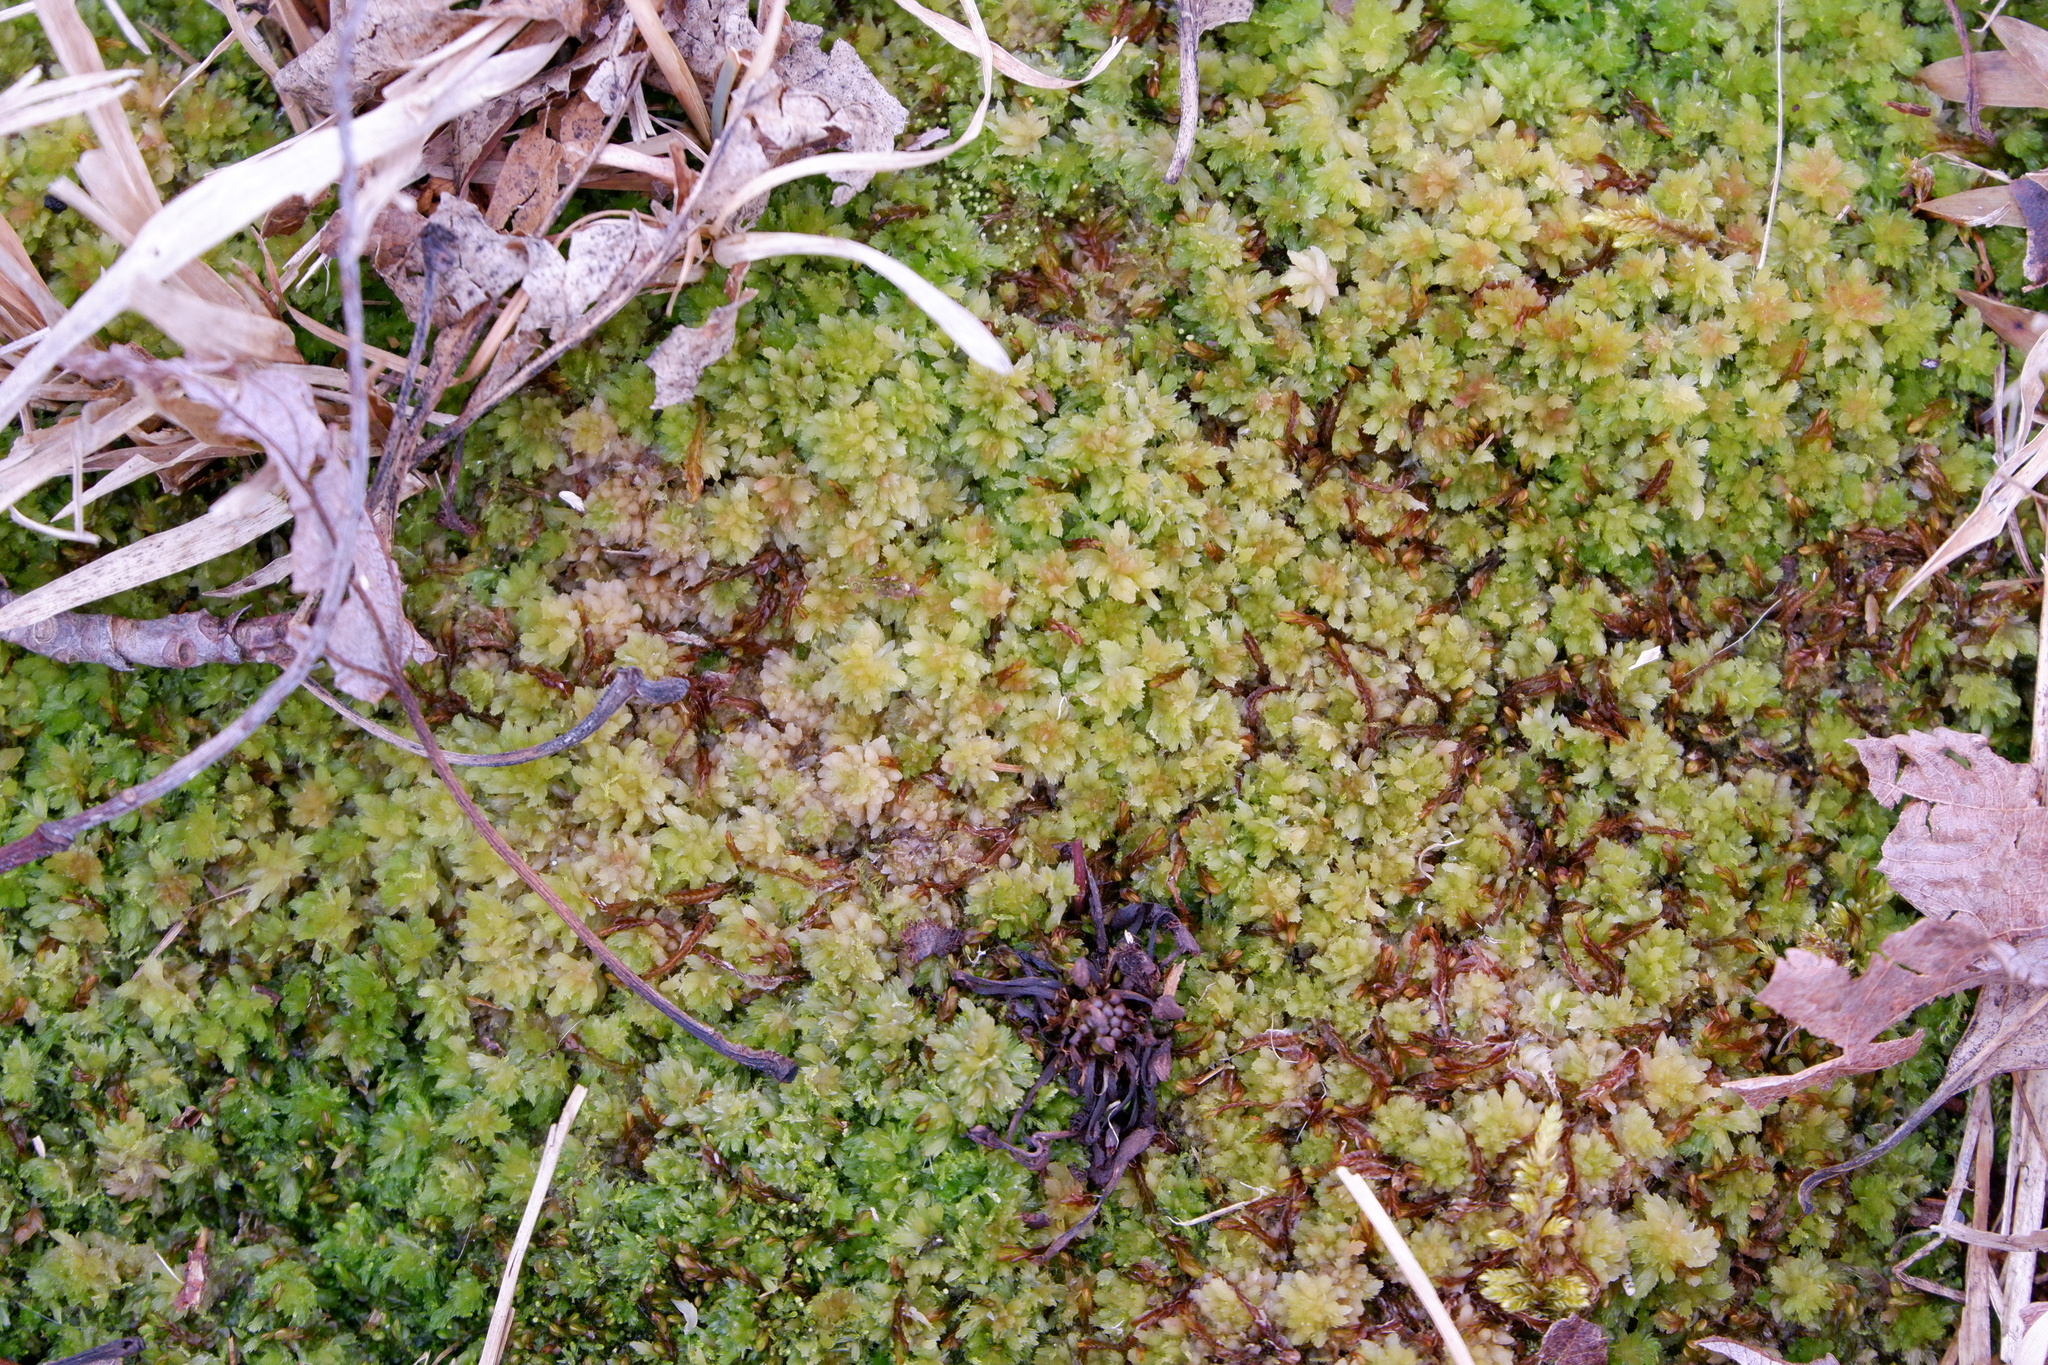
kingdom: Plantae
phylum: Marchantiophyta
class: Jungermanniopsida
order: Jungermanniales
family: Cephaloziaceae
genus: Odontoschisma
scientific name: Odontoschisma sphagni
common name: Bog-moss flapwort
